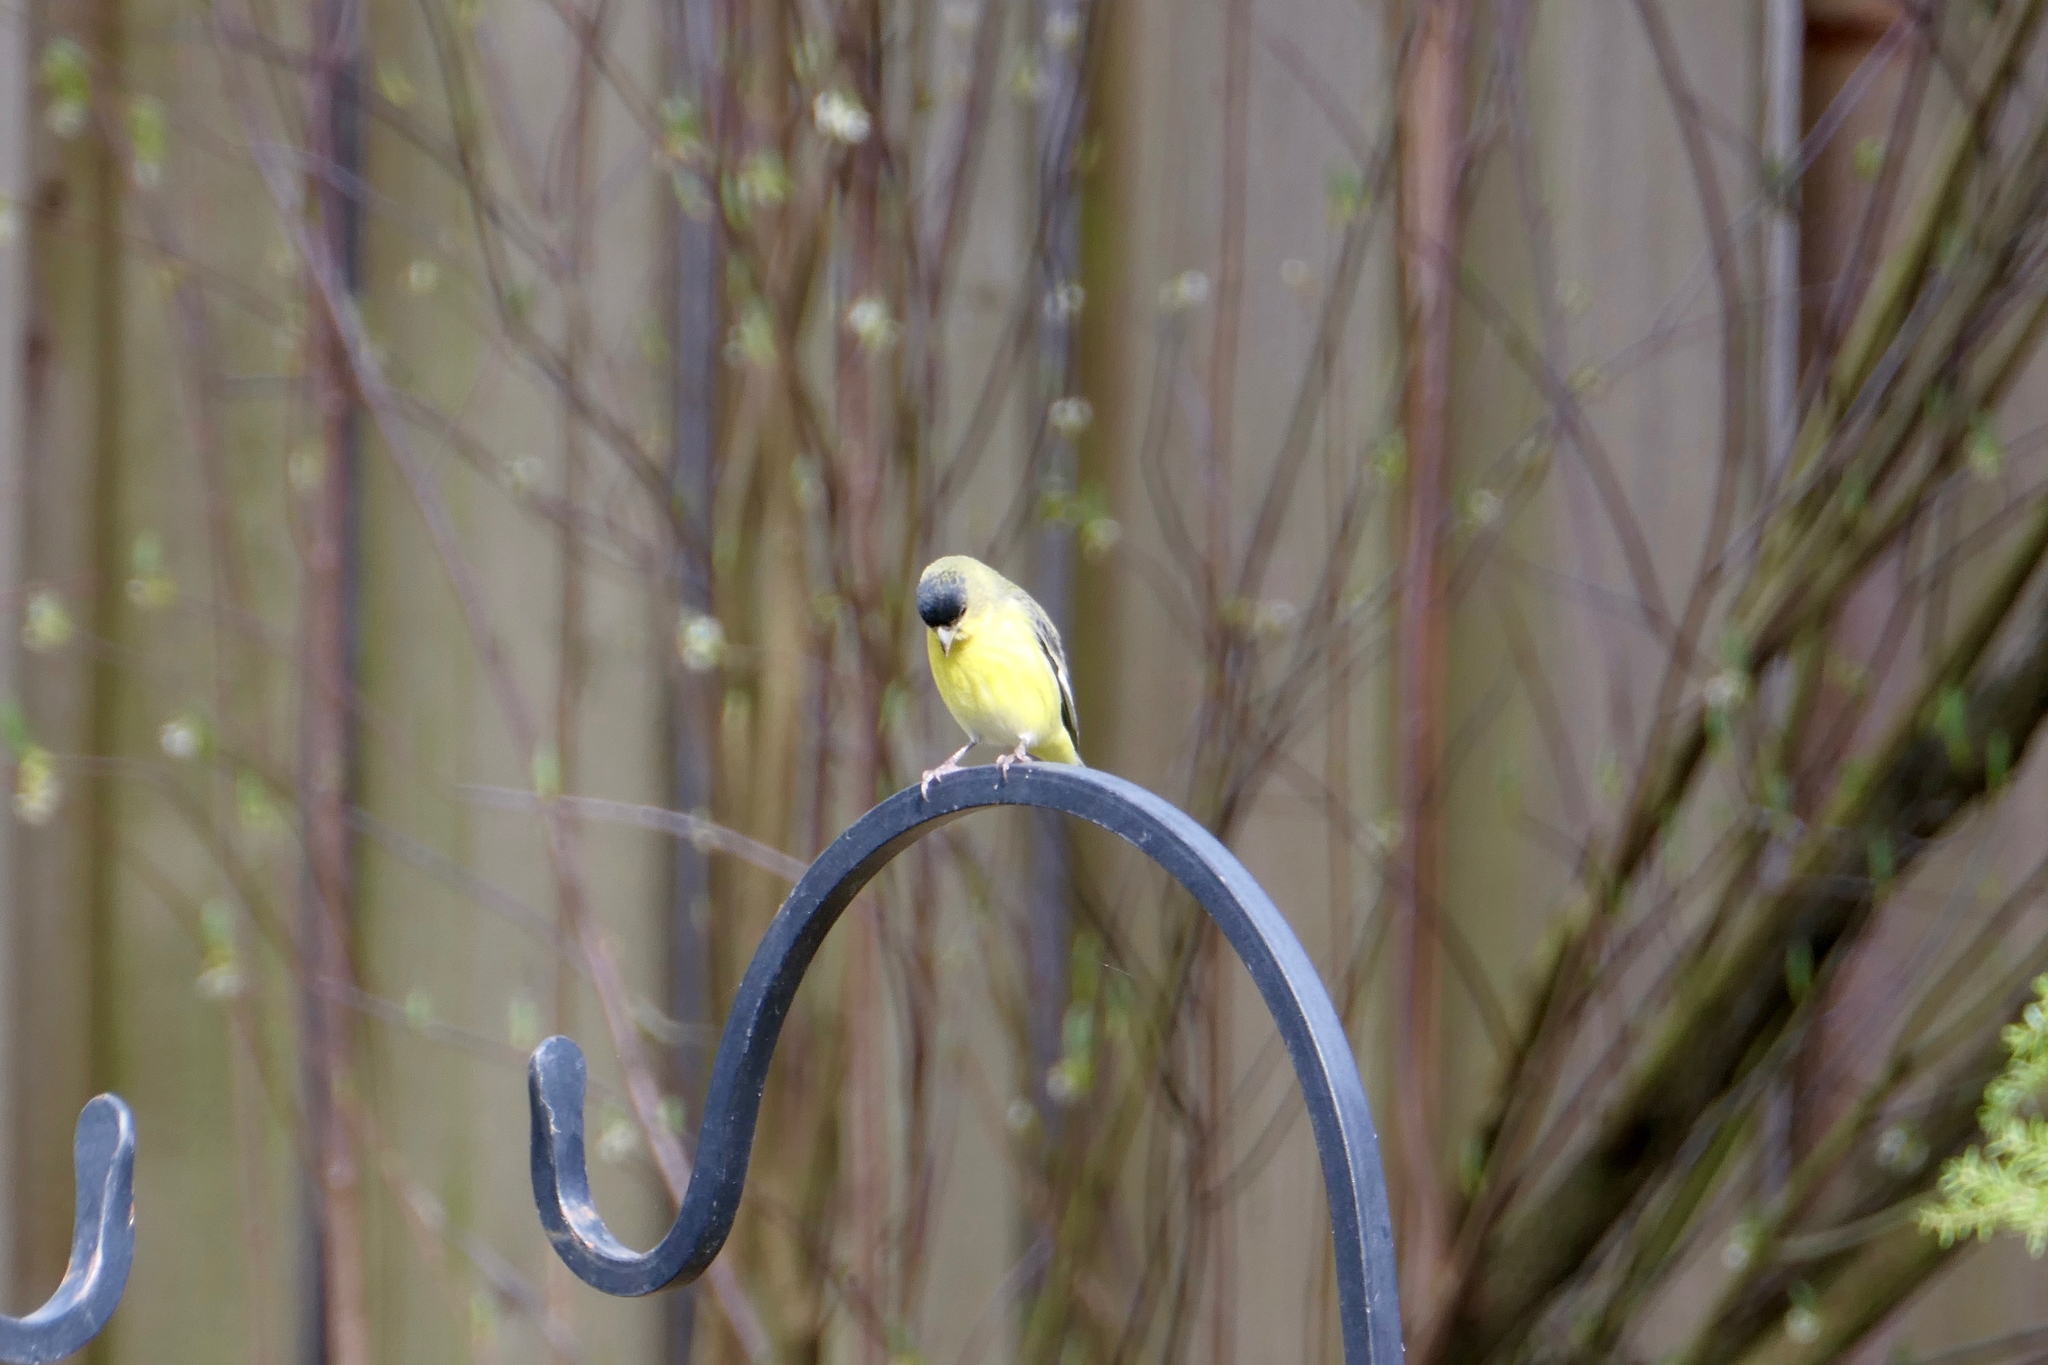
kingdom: Animalia
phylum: Chordata
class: Aves
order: Passeriformes
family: Fringillidae
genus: Spinus
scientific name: Spinus psaltria
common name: Lesser goldfinch
